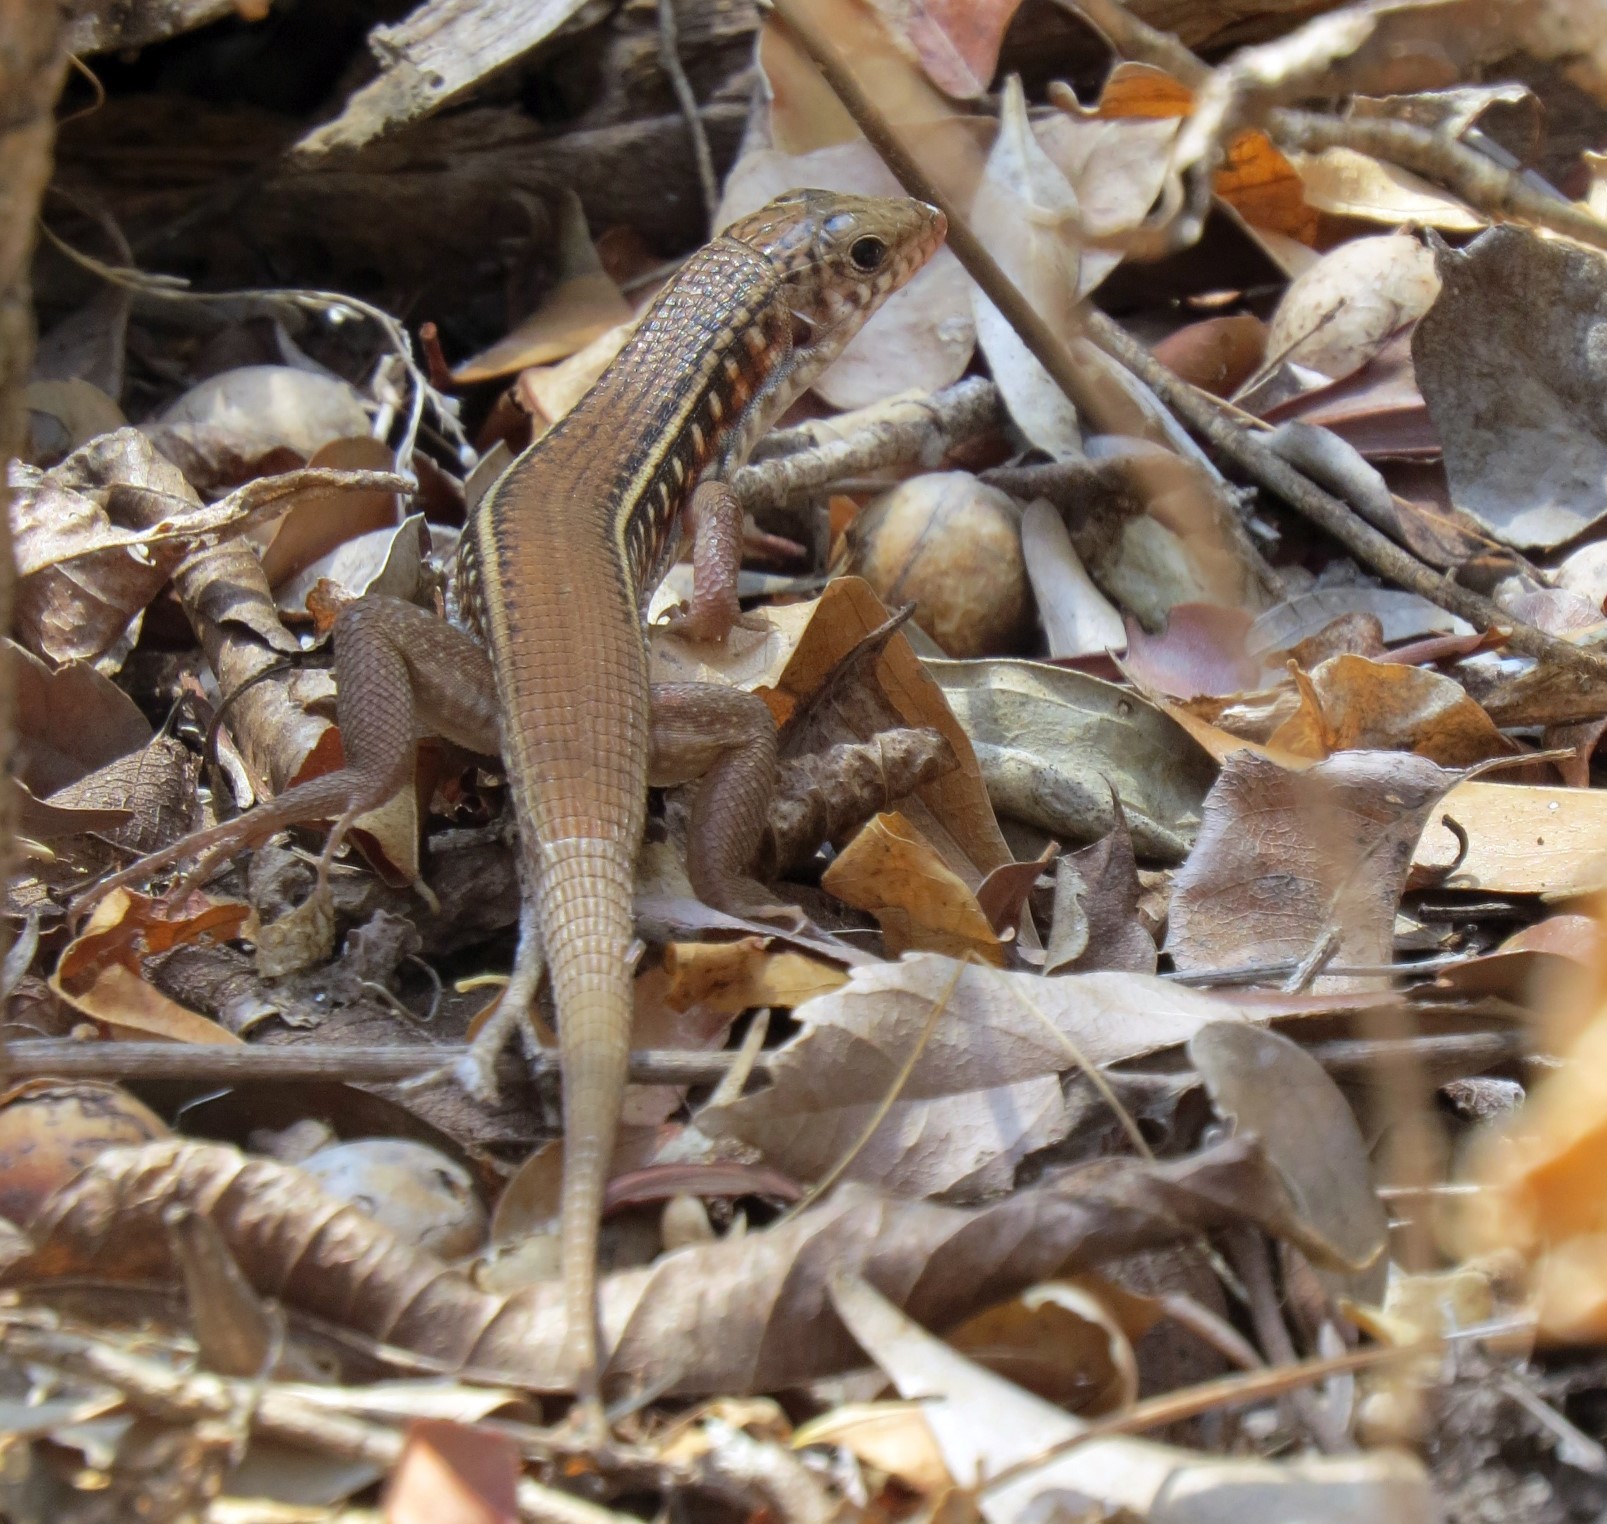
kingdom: Animalia
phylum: Chordata
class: Squamata
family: Gerrhosauridae
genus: Zonosaurus
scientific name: Zonosaurus karsteni
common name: Karsten's girdled lizard
